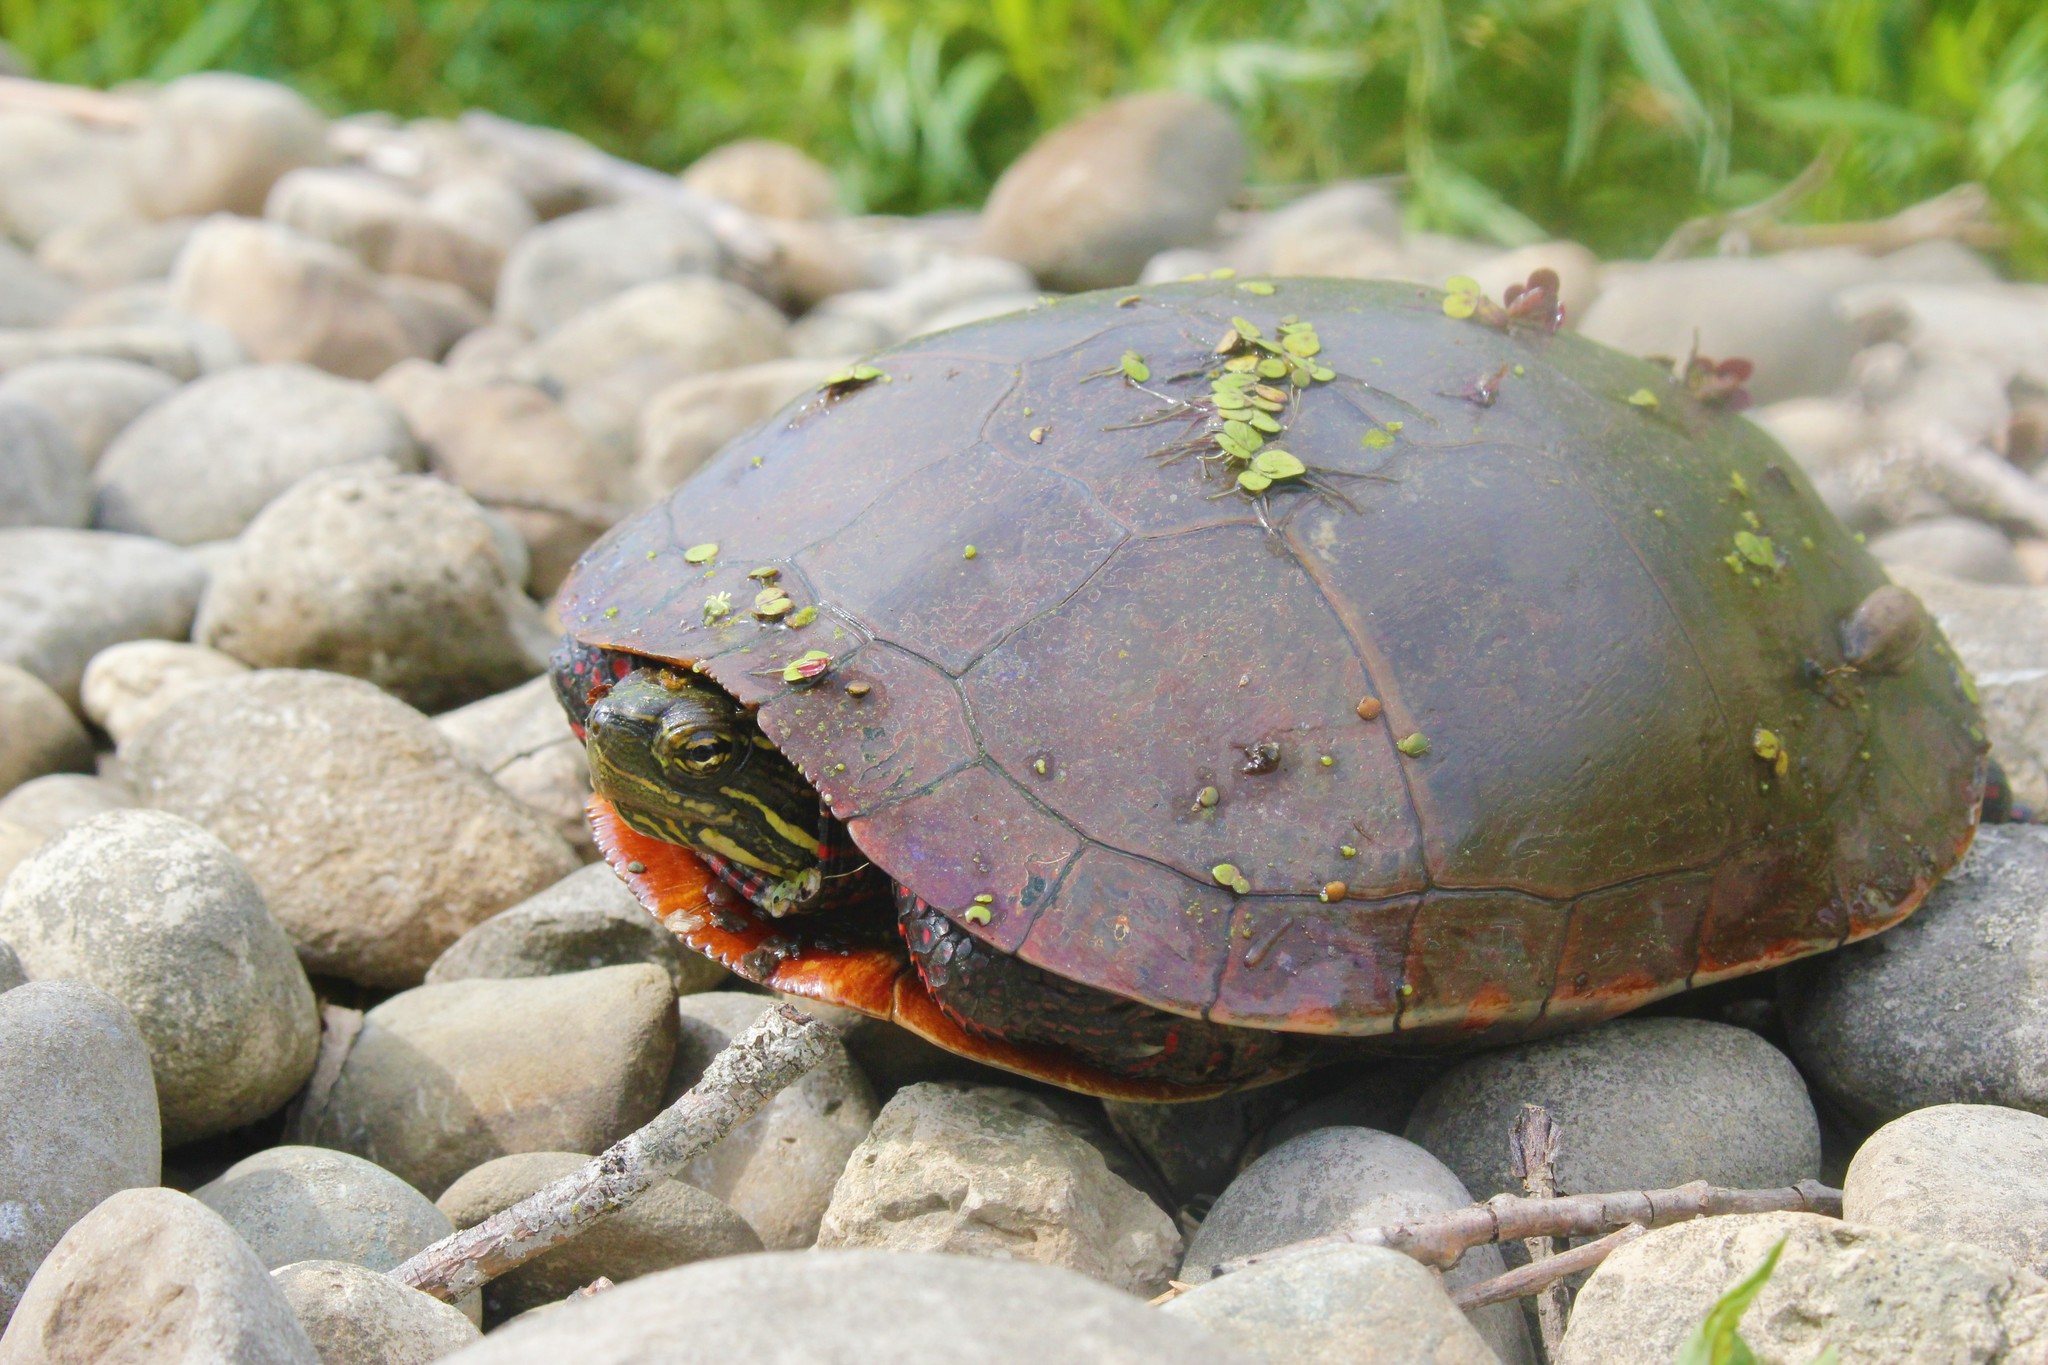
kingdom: Animalia
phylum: Chordata
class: Testudines
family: Emydidae
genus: Chrysemys
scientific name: Chrysemys picta
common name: Painted turtle
